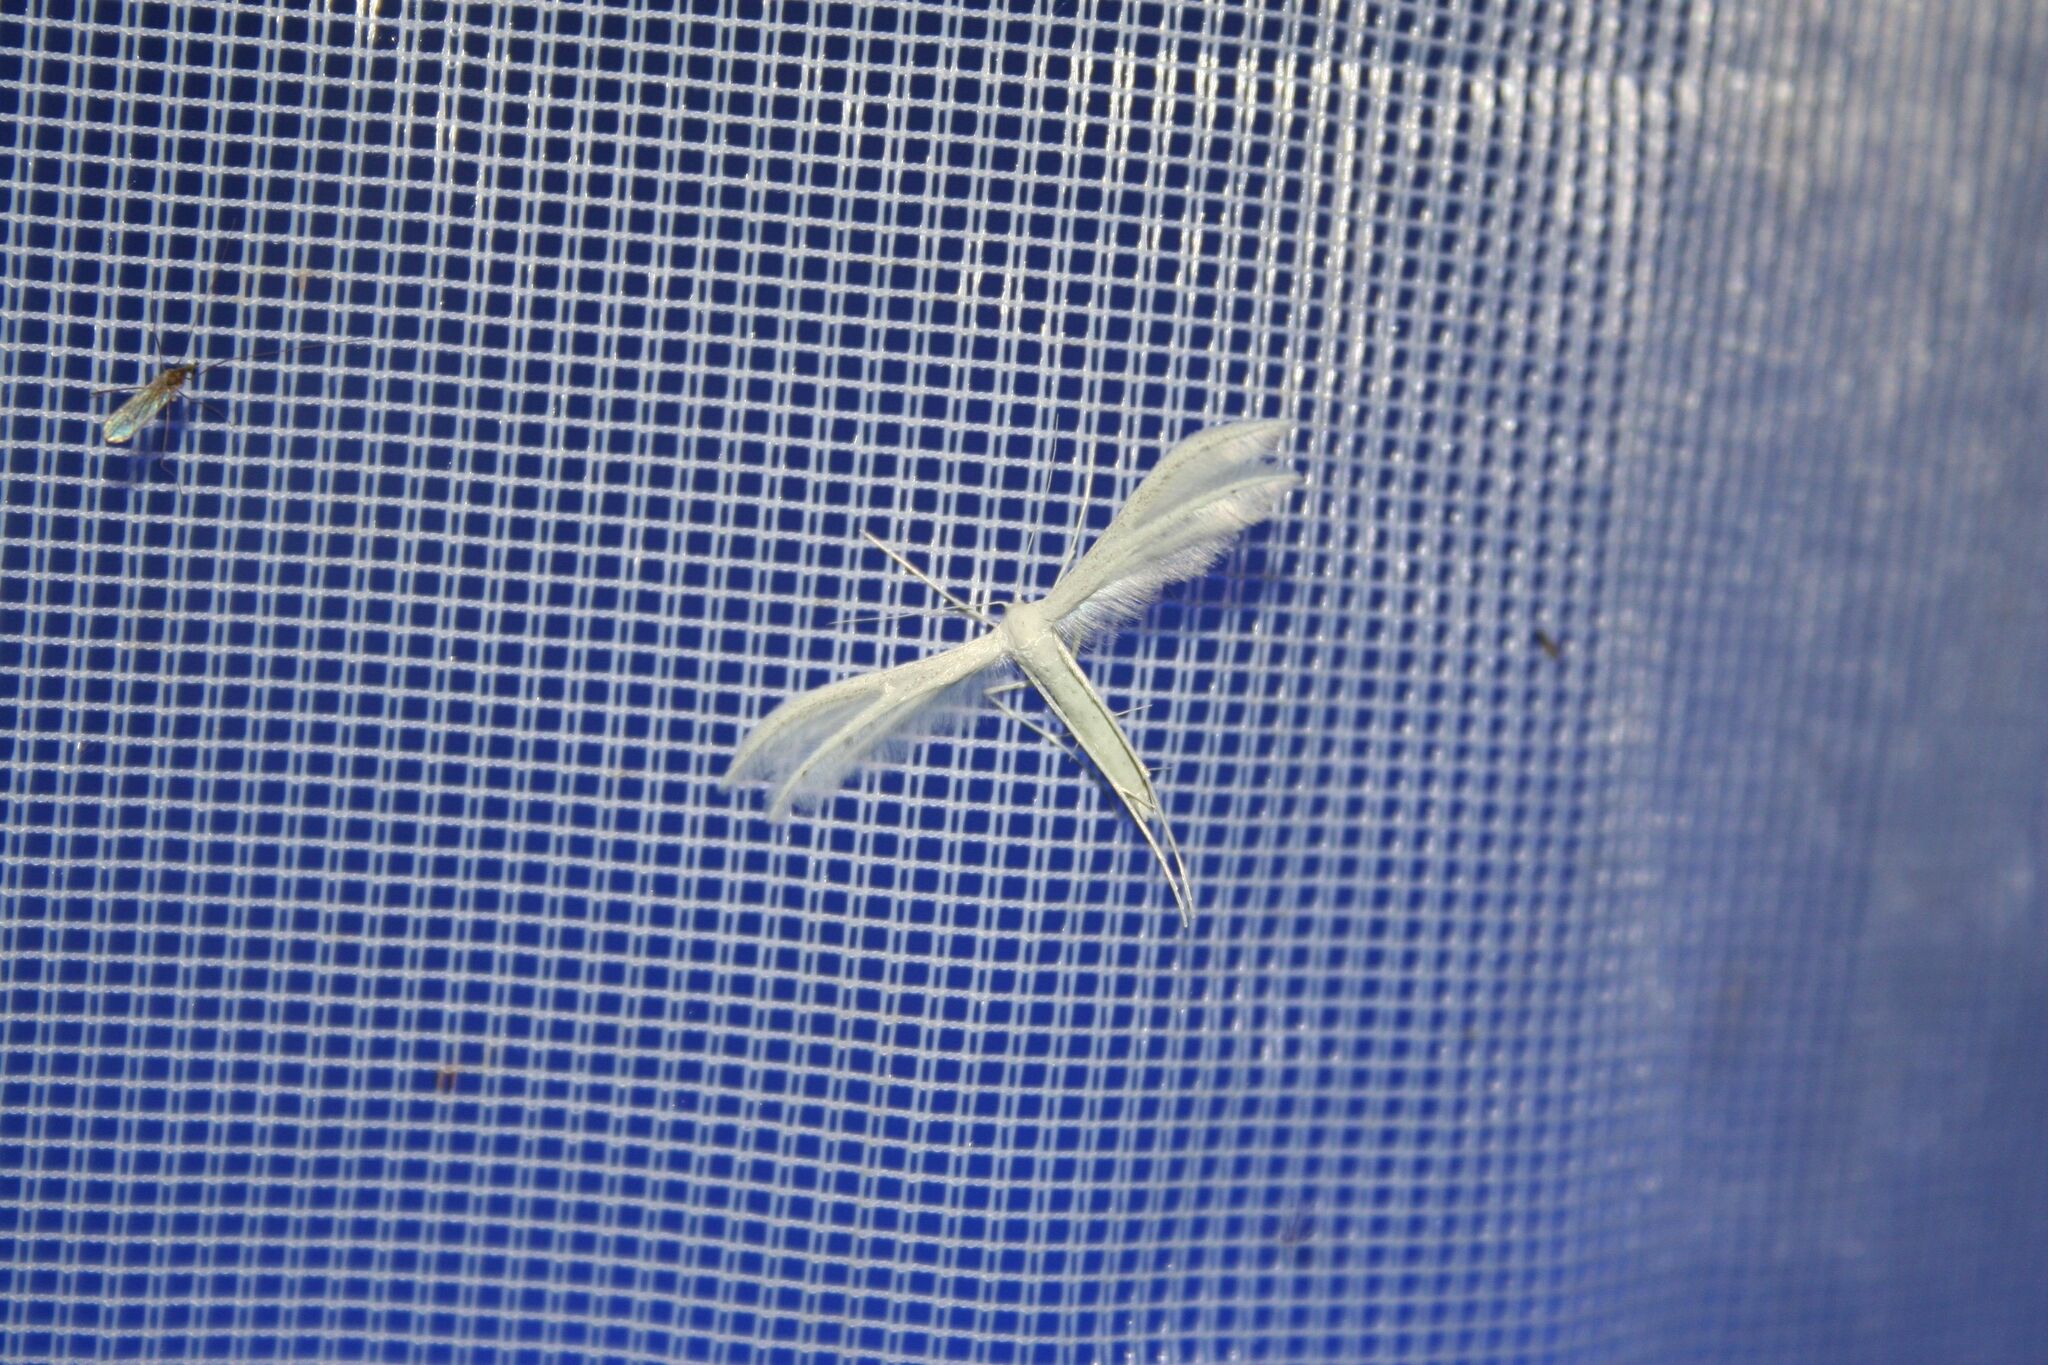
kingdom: Animalia
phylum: Arthropoda
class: Insecta
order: Lepidoptera
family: Pterophoridae
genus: Pterophorus
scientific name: Pterophorus pentadactyla
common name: White plume moth
